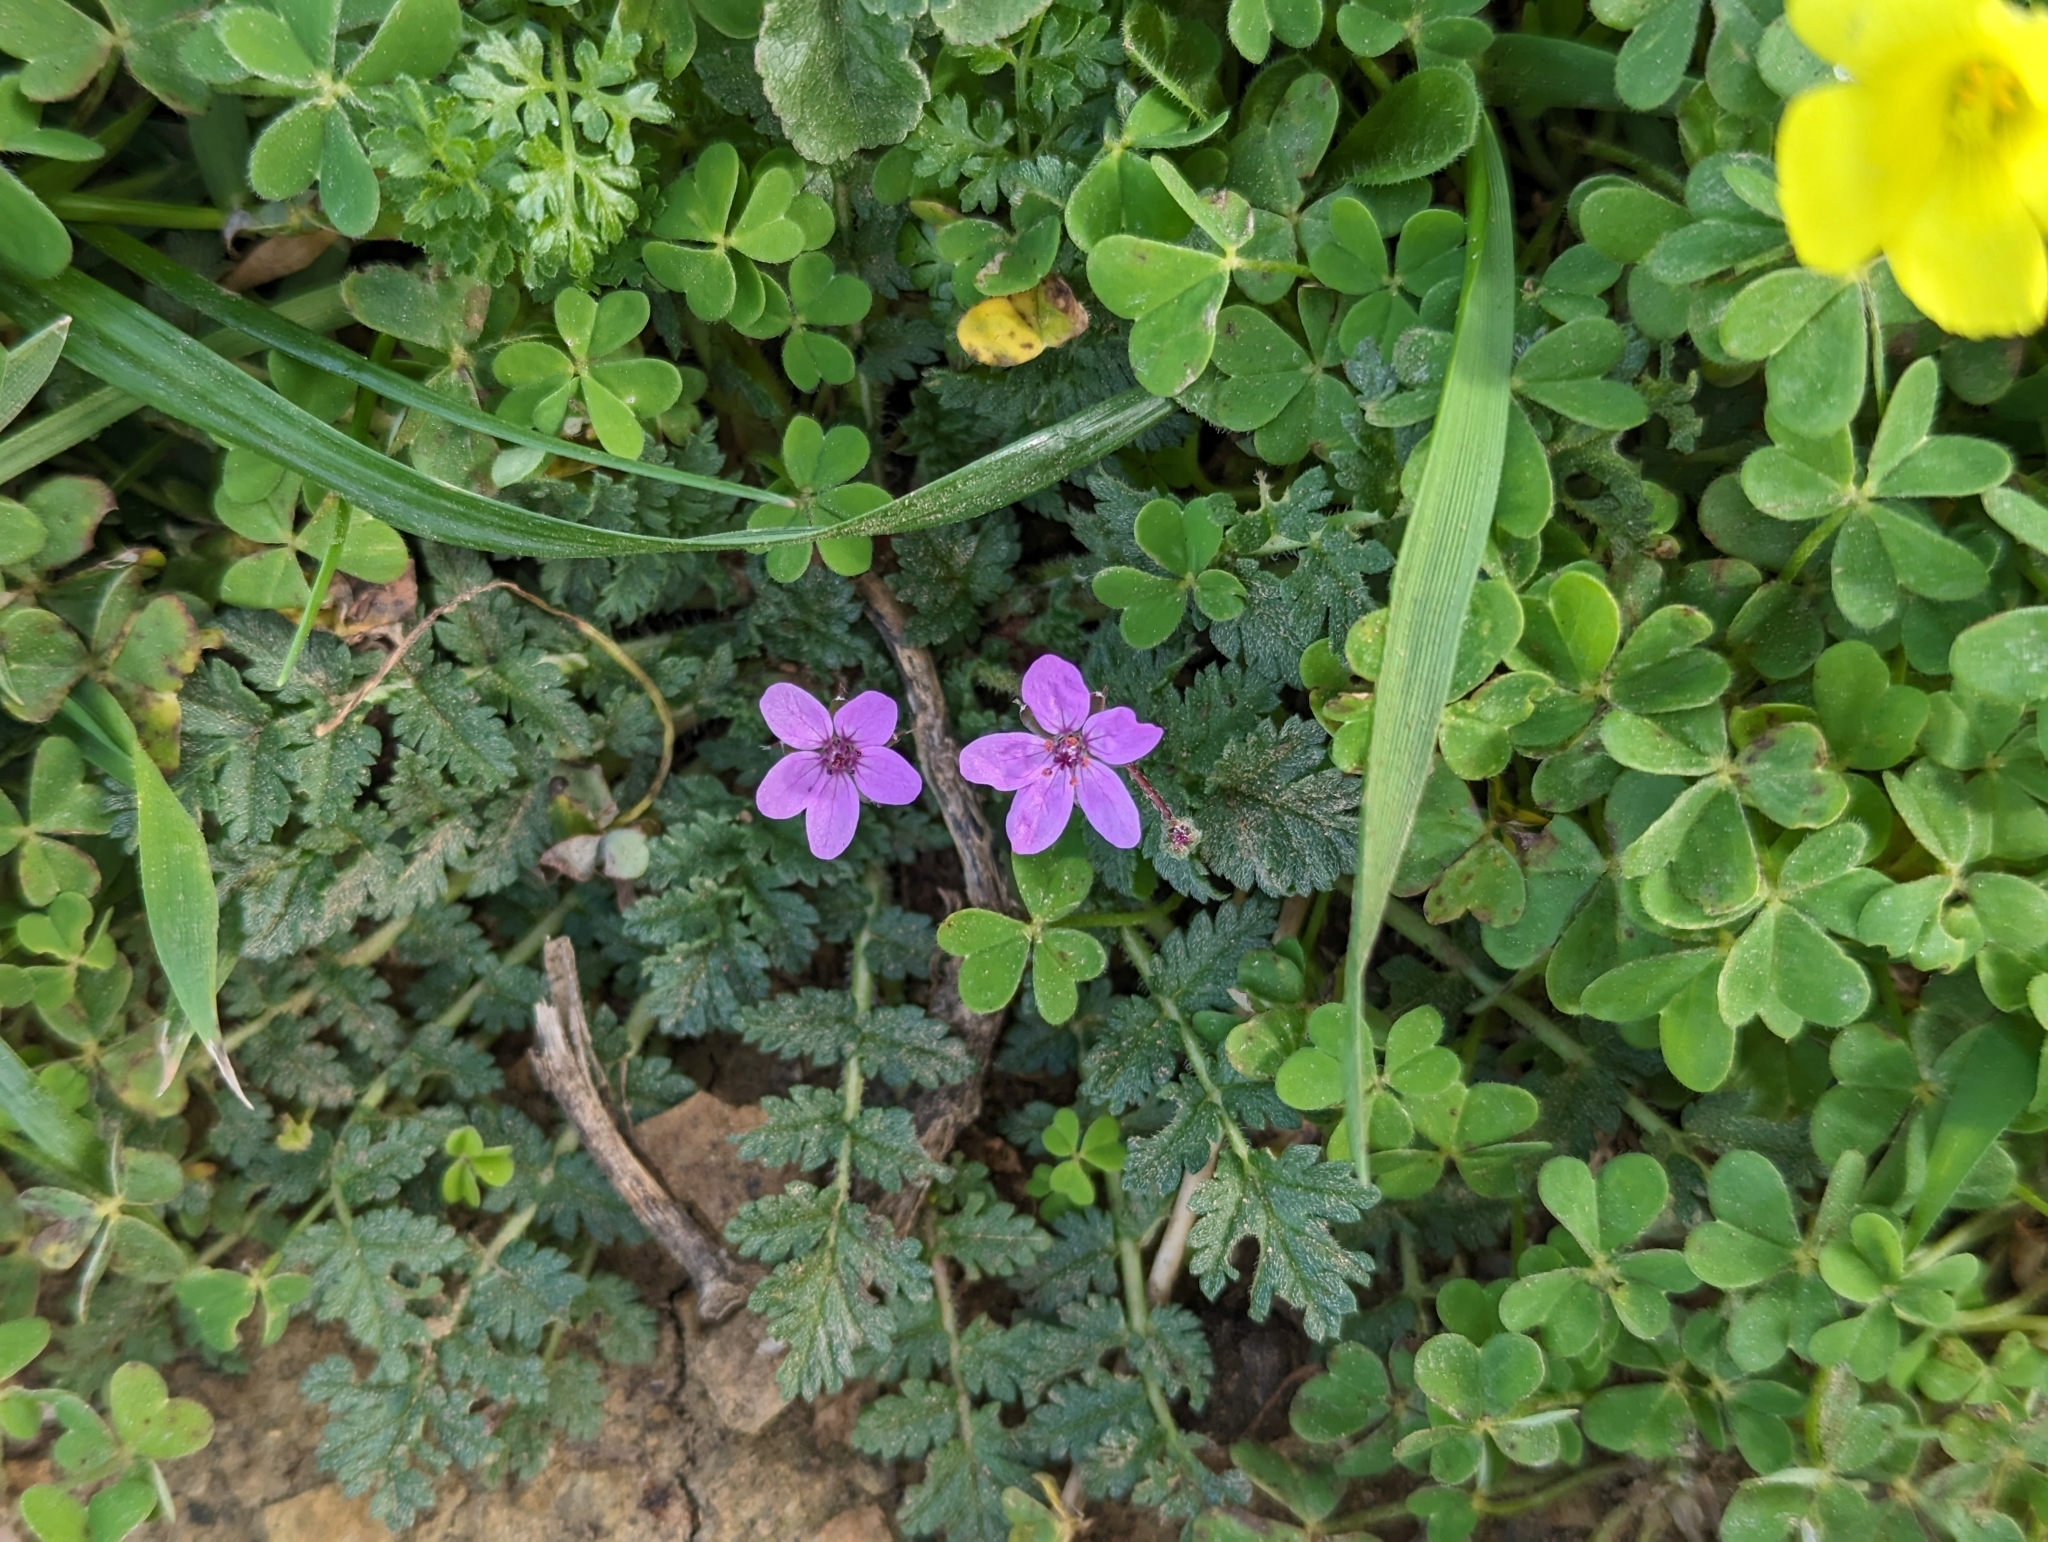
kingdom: Plantae
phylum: Tracheophyta
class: Magnoliopsida
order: Geraniales
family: Geraniaceae
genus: Erodium
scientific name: Erodium cicutarium
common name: Common stork's-bill
